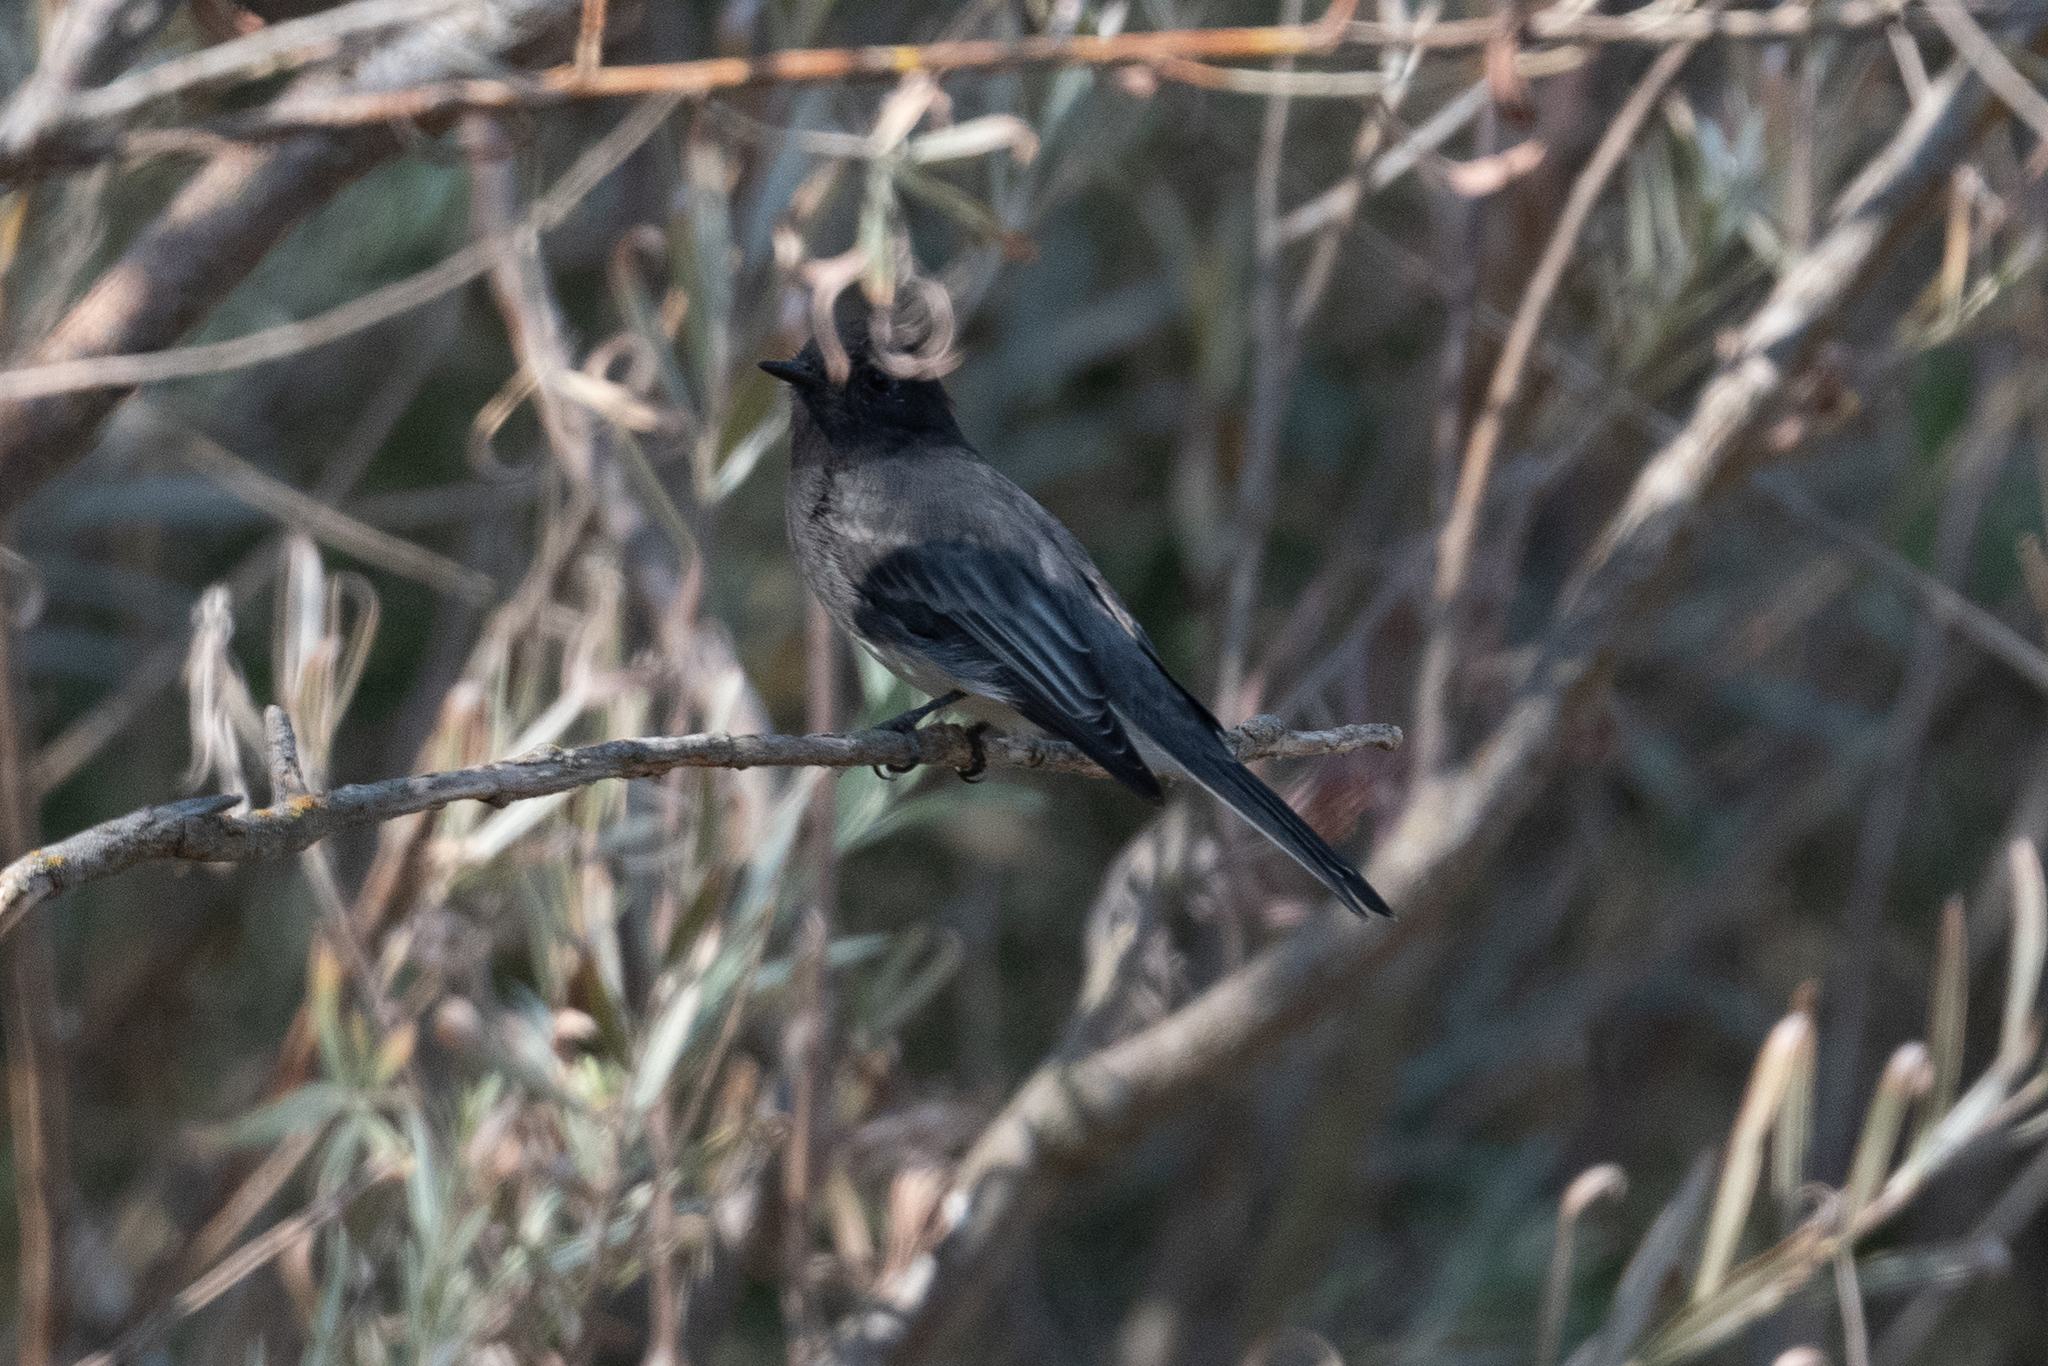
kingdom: Animalia
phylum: Chordata
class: Aves
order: Passeriformes
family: Tyrannidae
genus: Sayornis
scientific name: Sayornis nigricans
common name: Black phoebe
